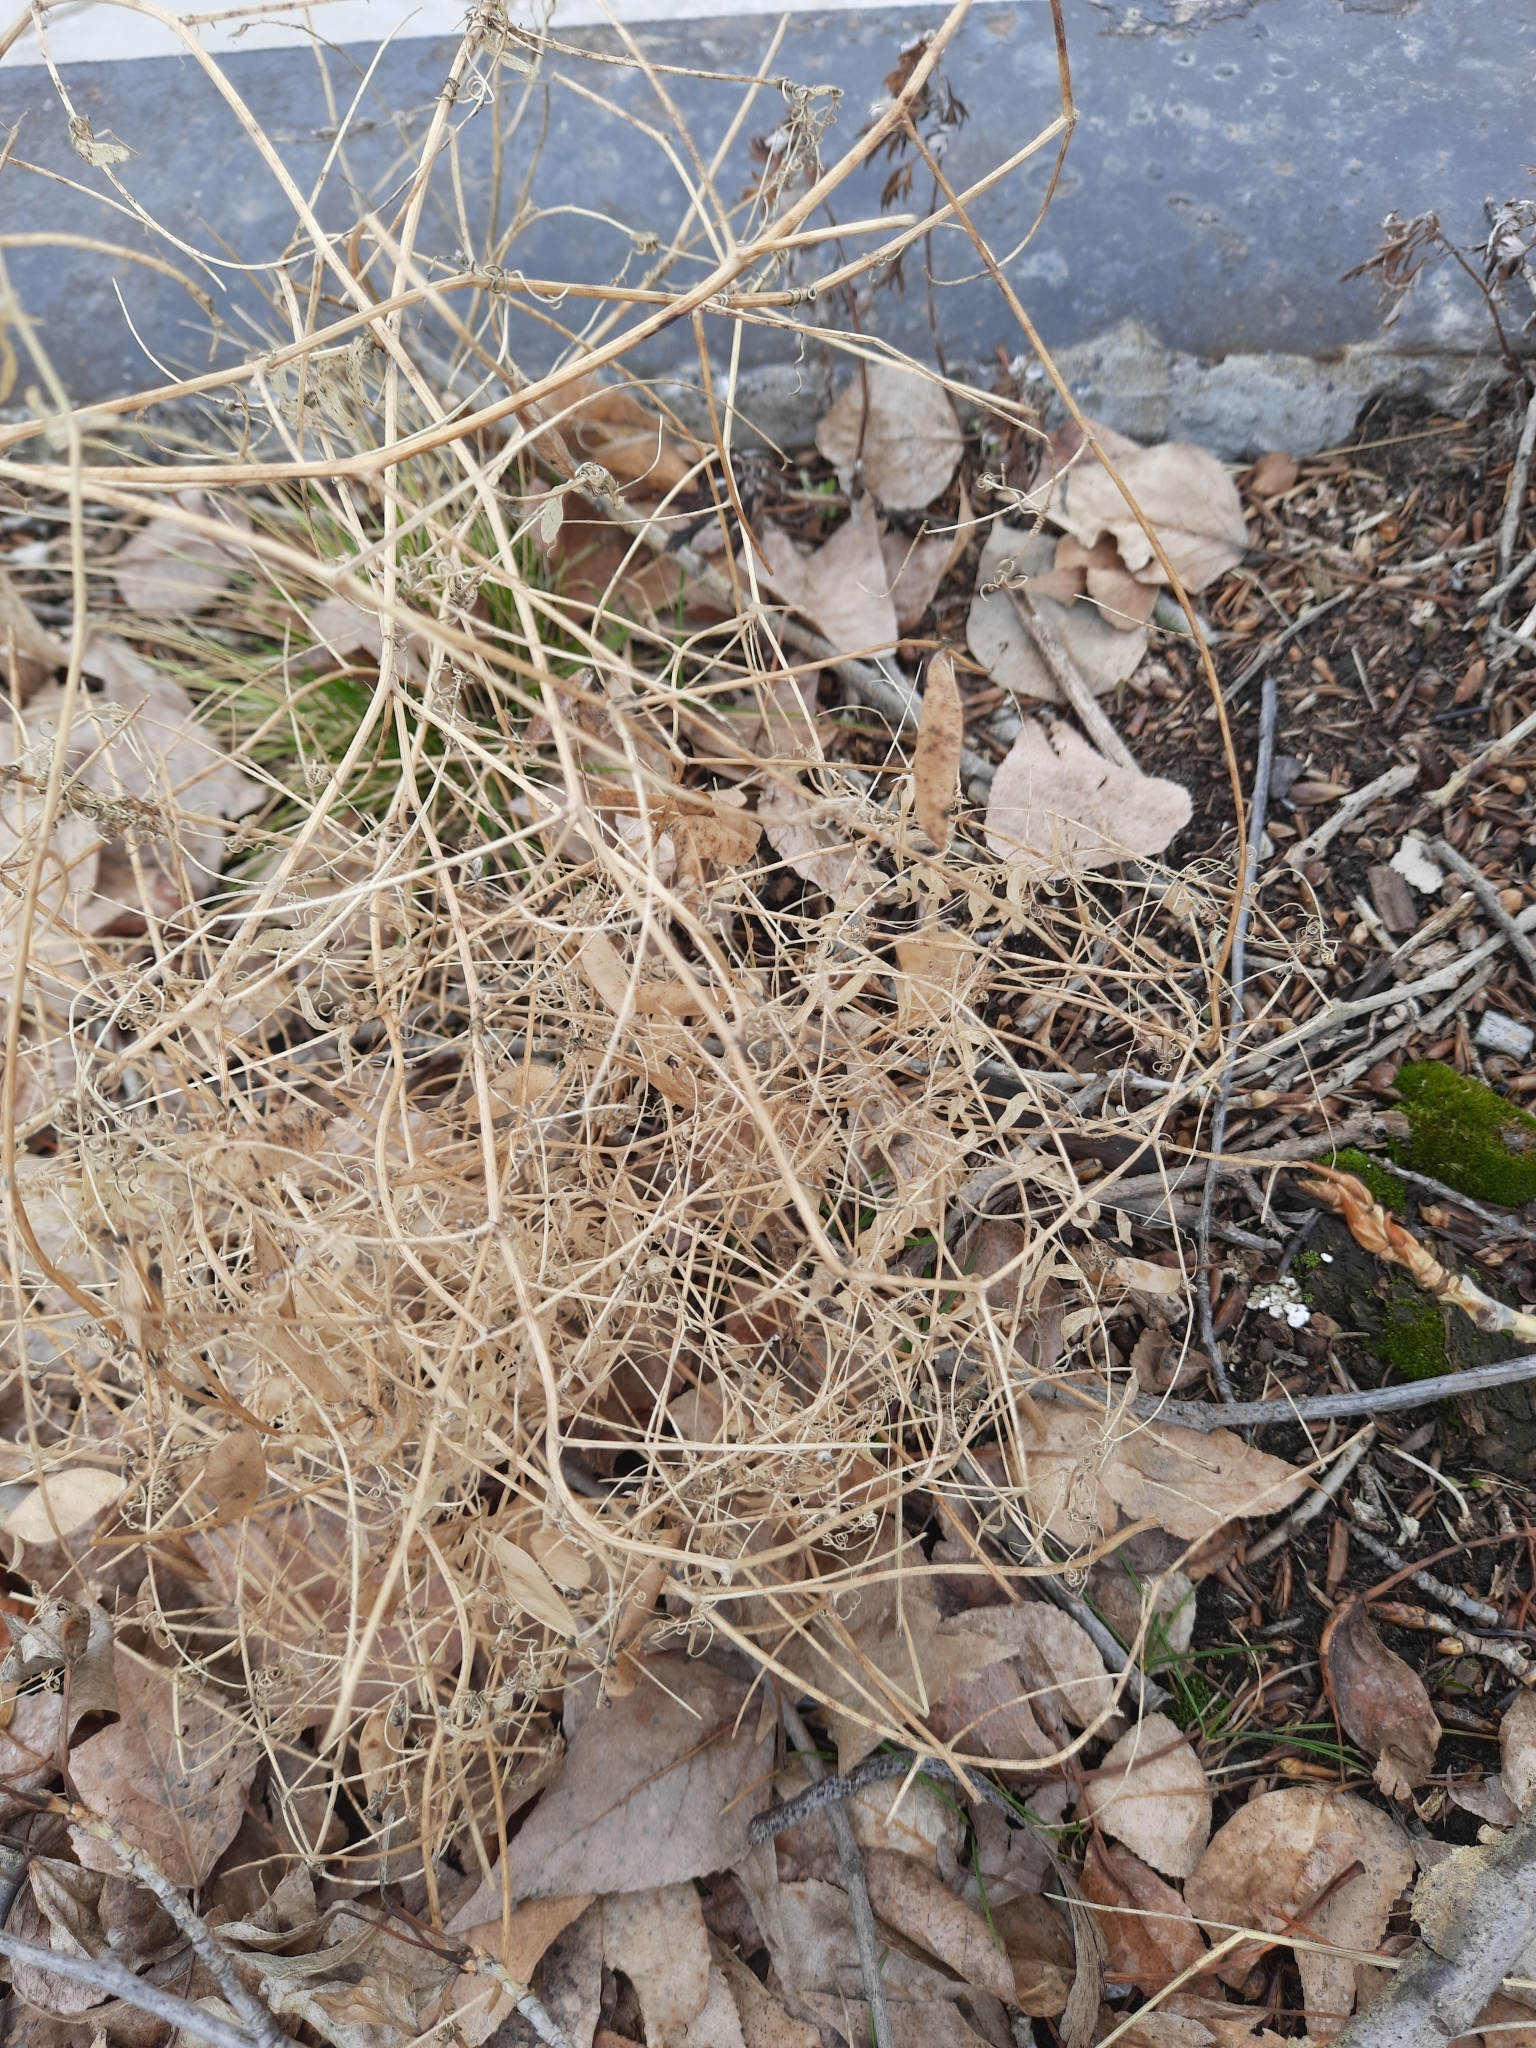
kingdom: Plantae
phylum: Tracheophyta
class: Magnoliopsida
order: Fabales
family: Fabaceae
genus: Vicia
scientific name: Vicia cracca
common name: Bird vetch
